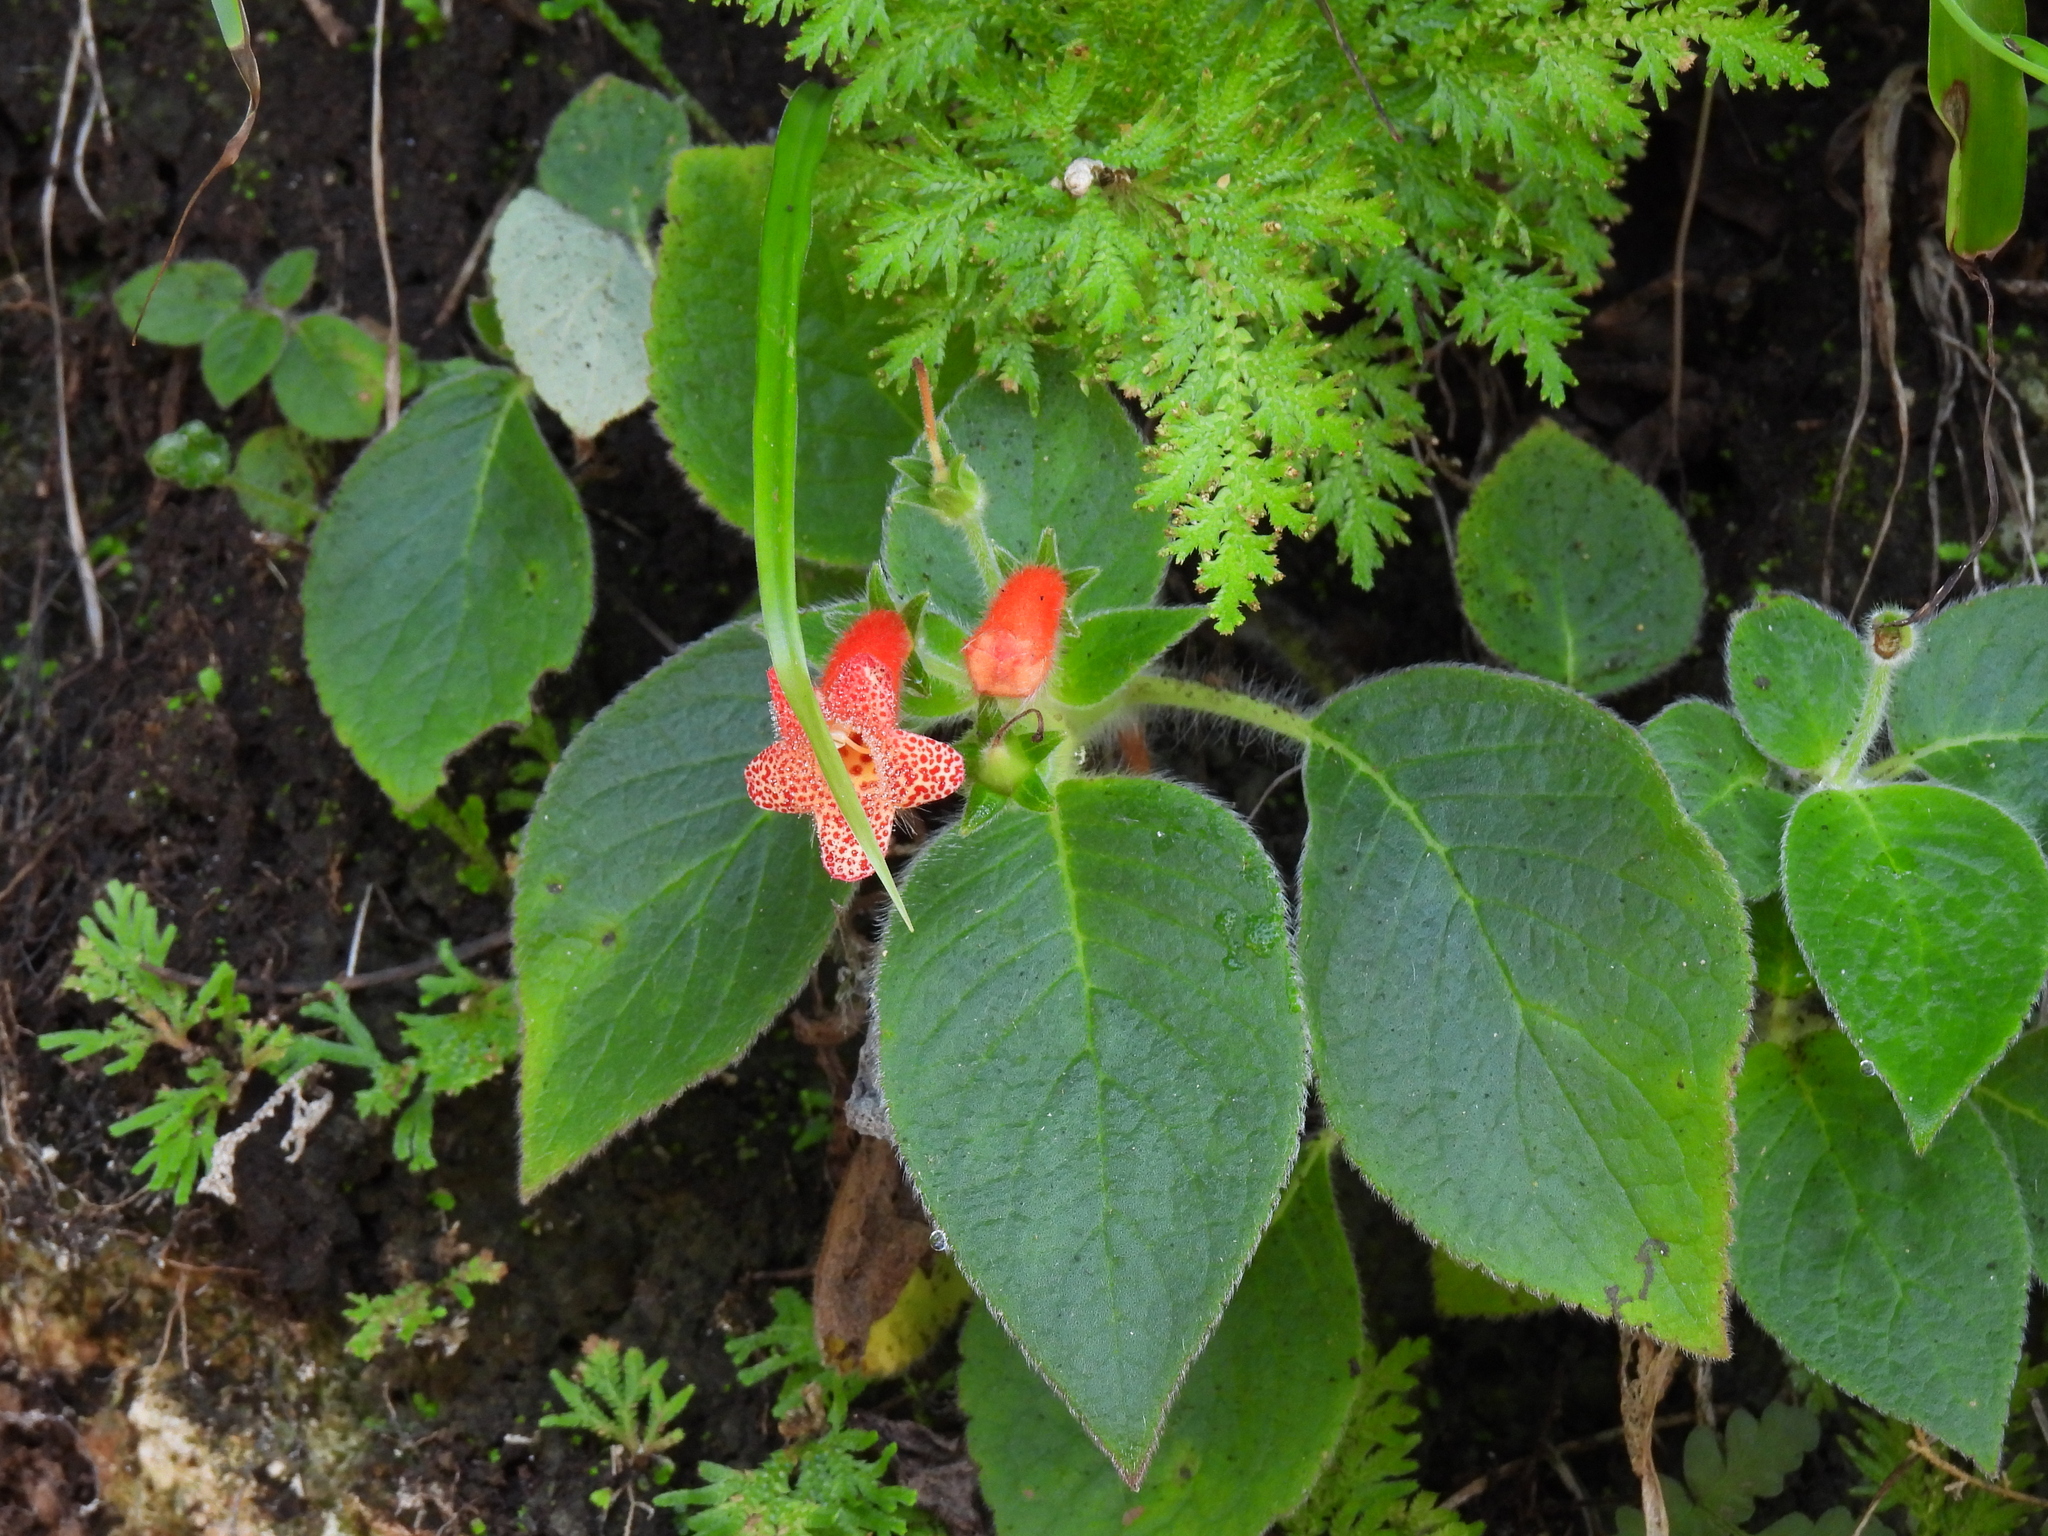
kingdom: Plantae
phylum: Tracheophyta
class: Magnoliopsida
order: Lamiales
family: Gesneriaceae
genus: Kohleria
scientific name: Kohleria rugata
